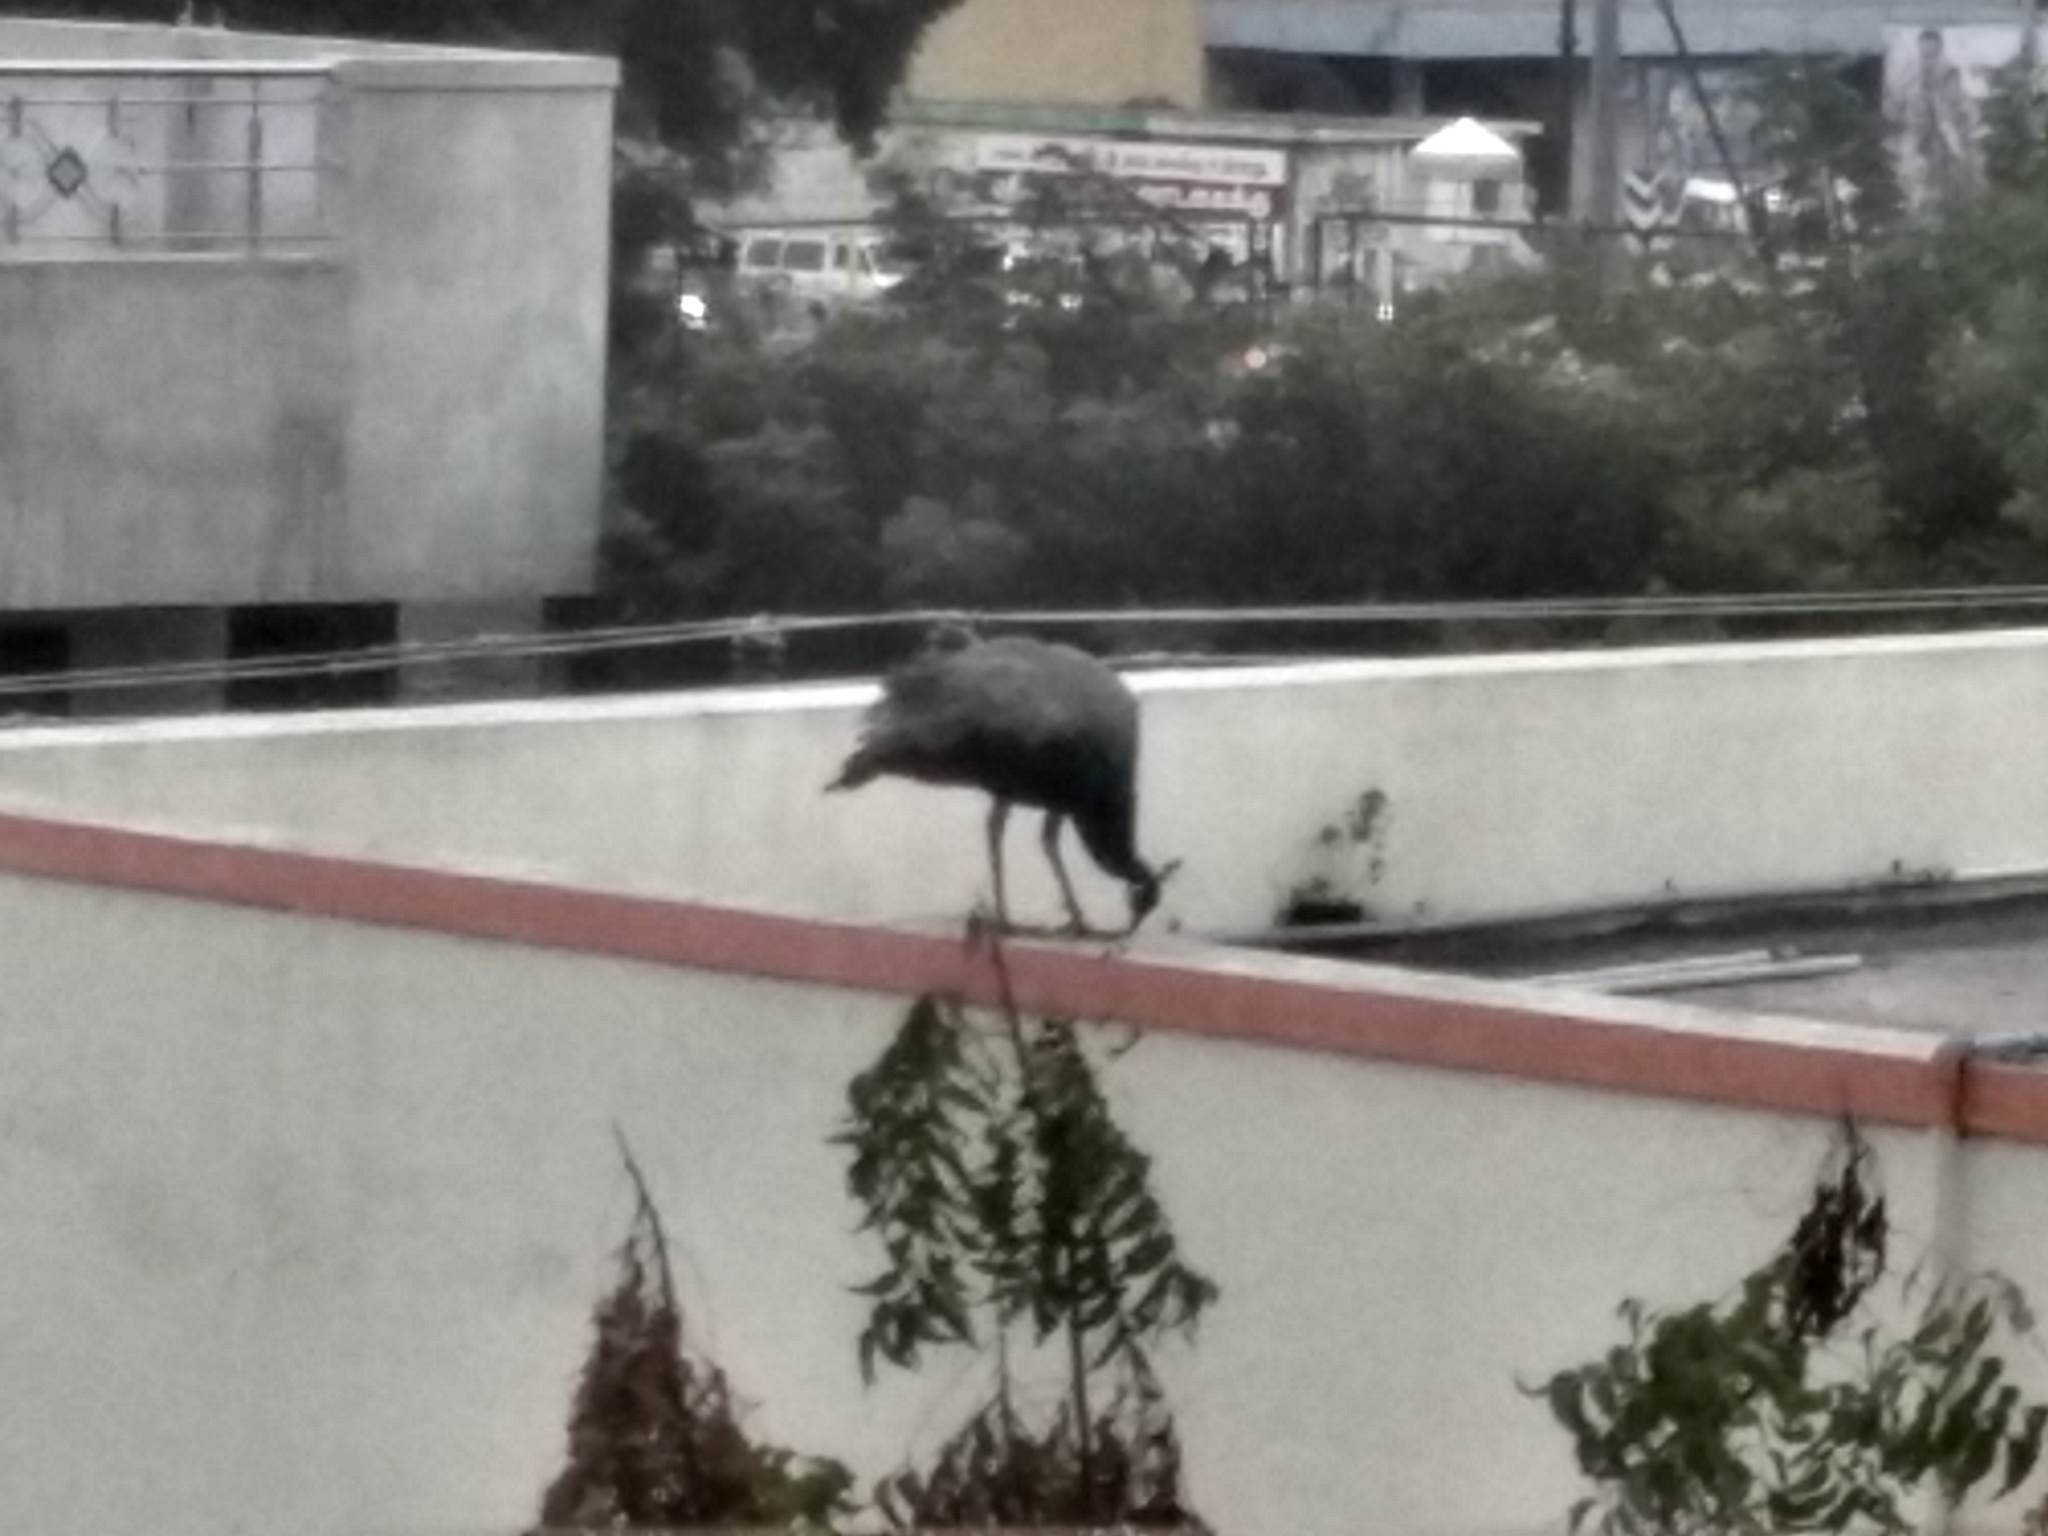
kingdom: Animalia
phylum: Chordata
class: Aves
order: Galliformes
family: Phasianidae
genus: Pavo
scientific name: Pavo cristatus
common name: Indian peafowl
